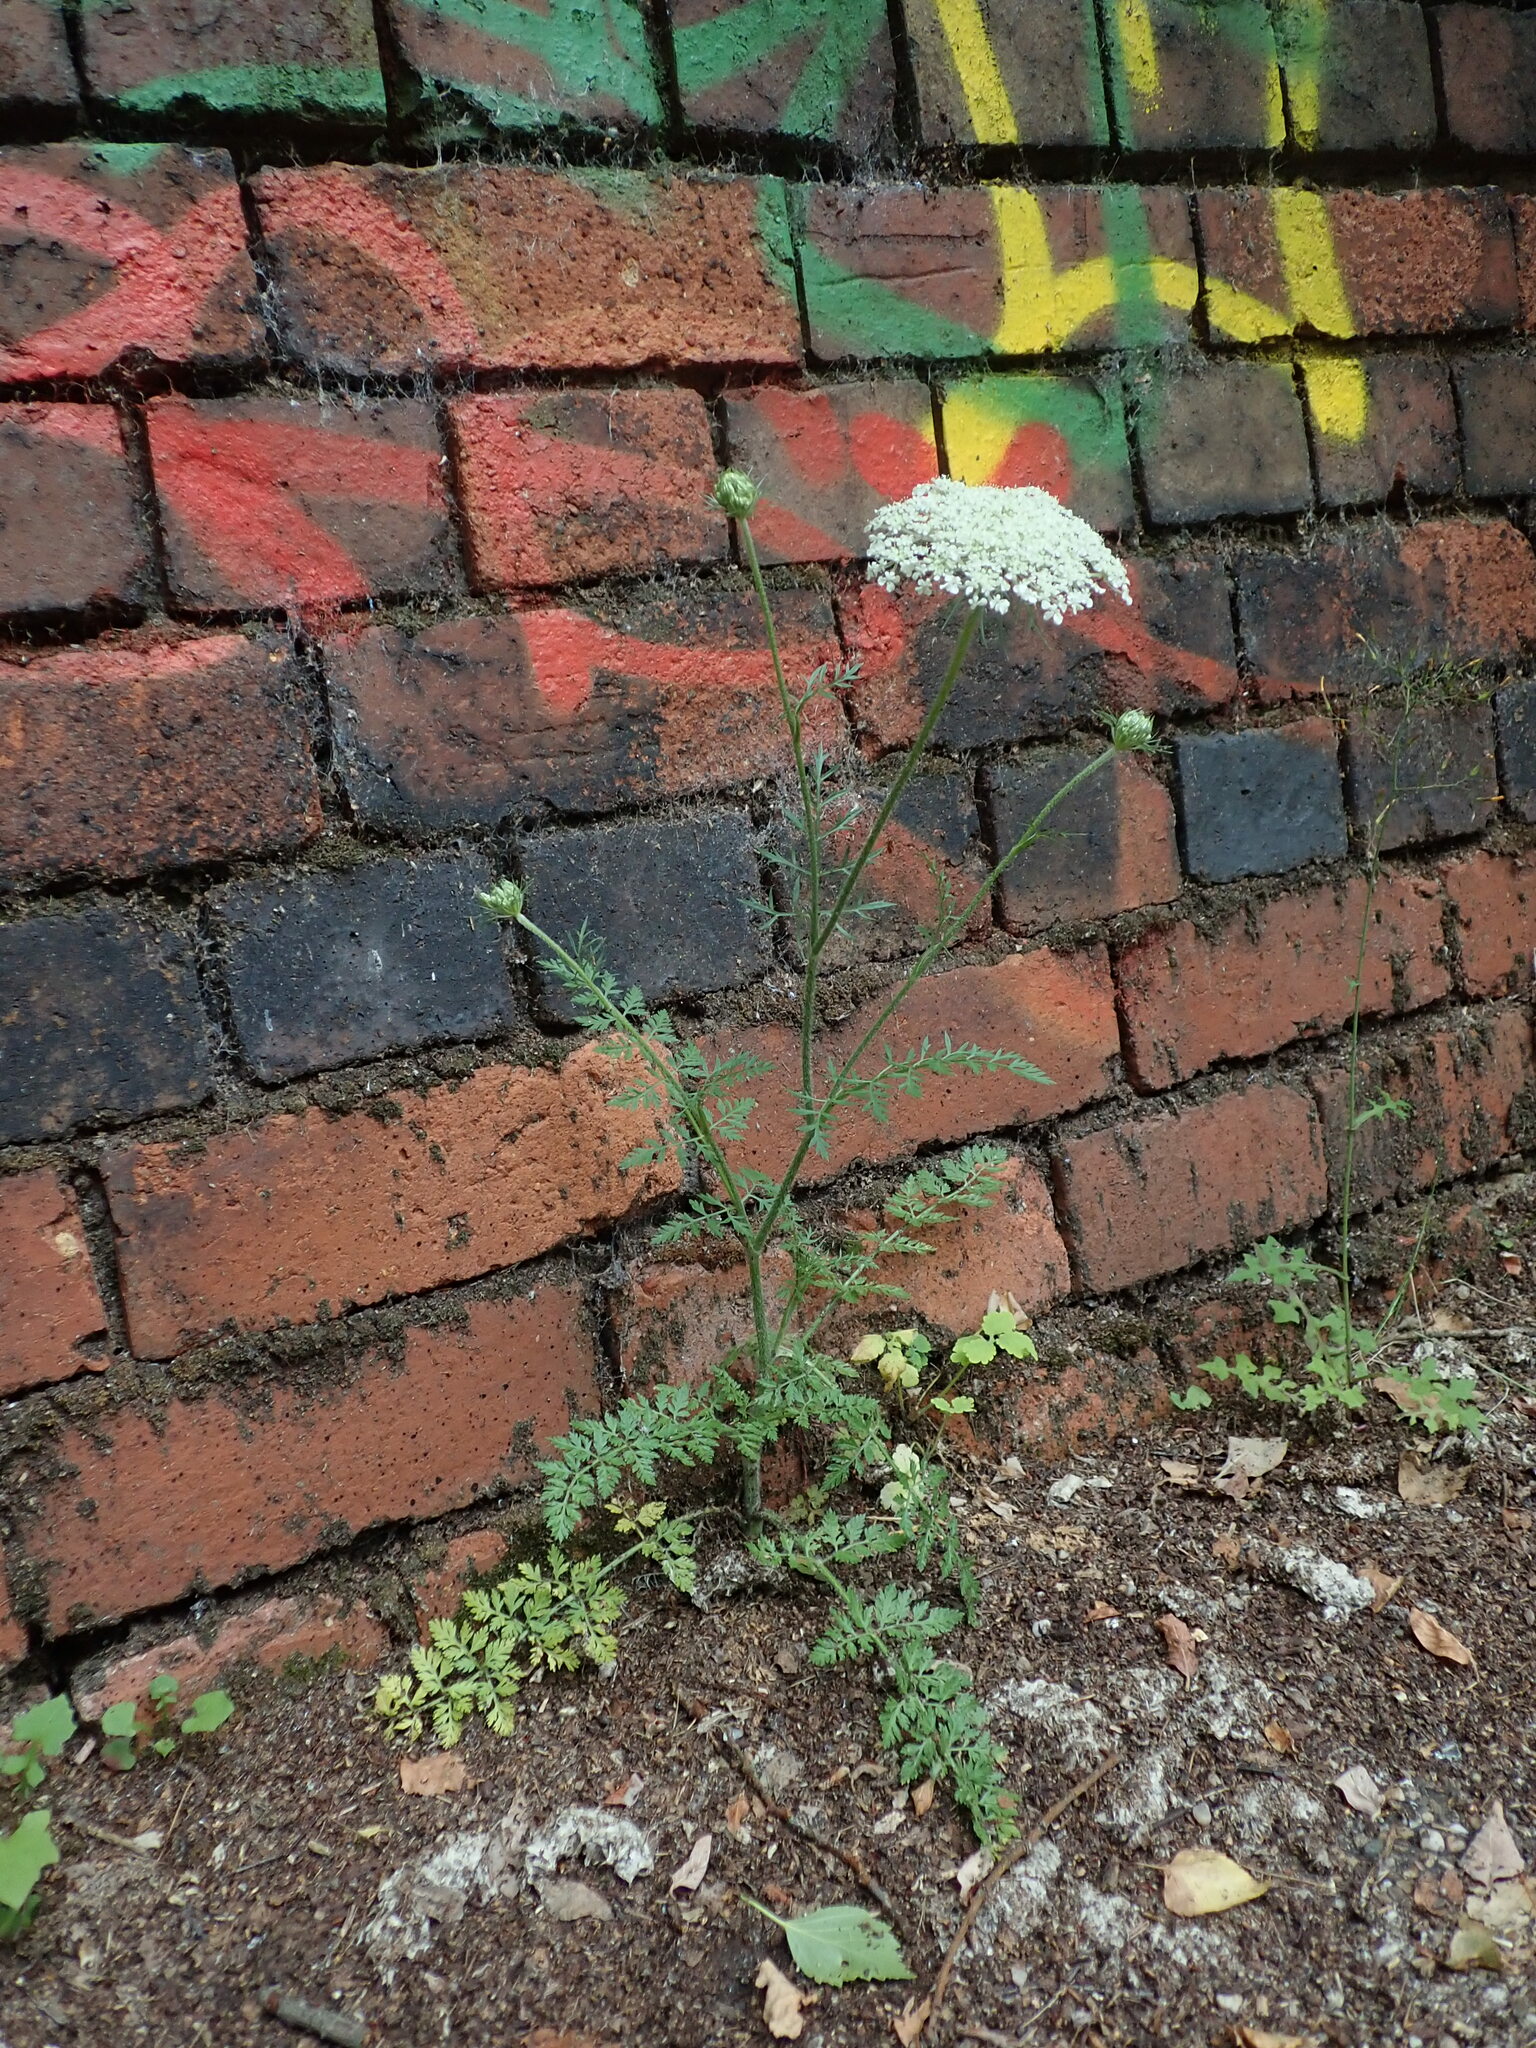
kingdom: Plantae
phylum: Tracheophyta
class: Magnoliopsida
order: Apiales
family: Apiaceae
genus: Daucus
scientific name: Daucus carota
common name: Wild carrot
